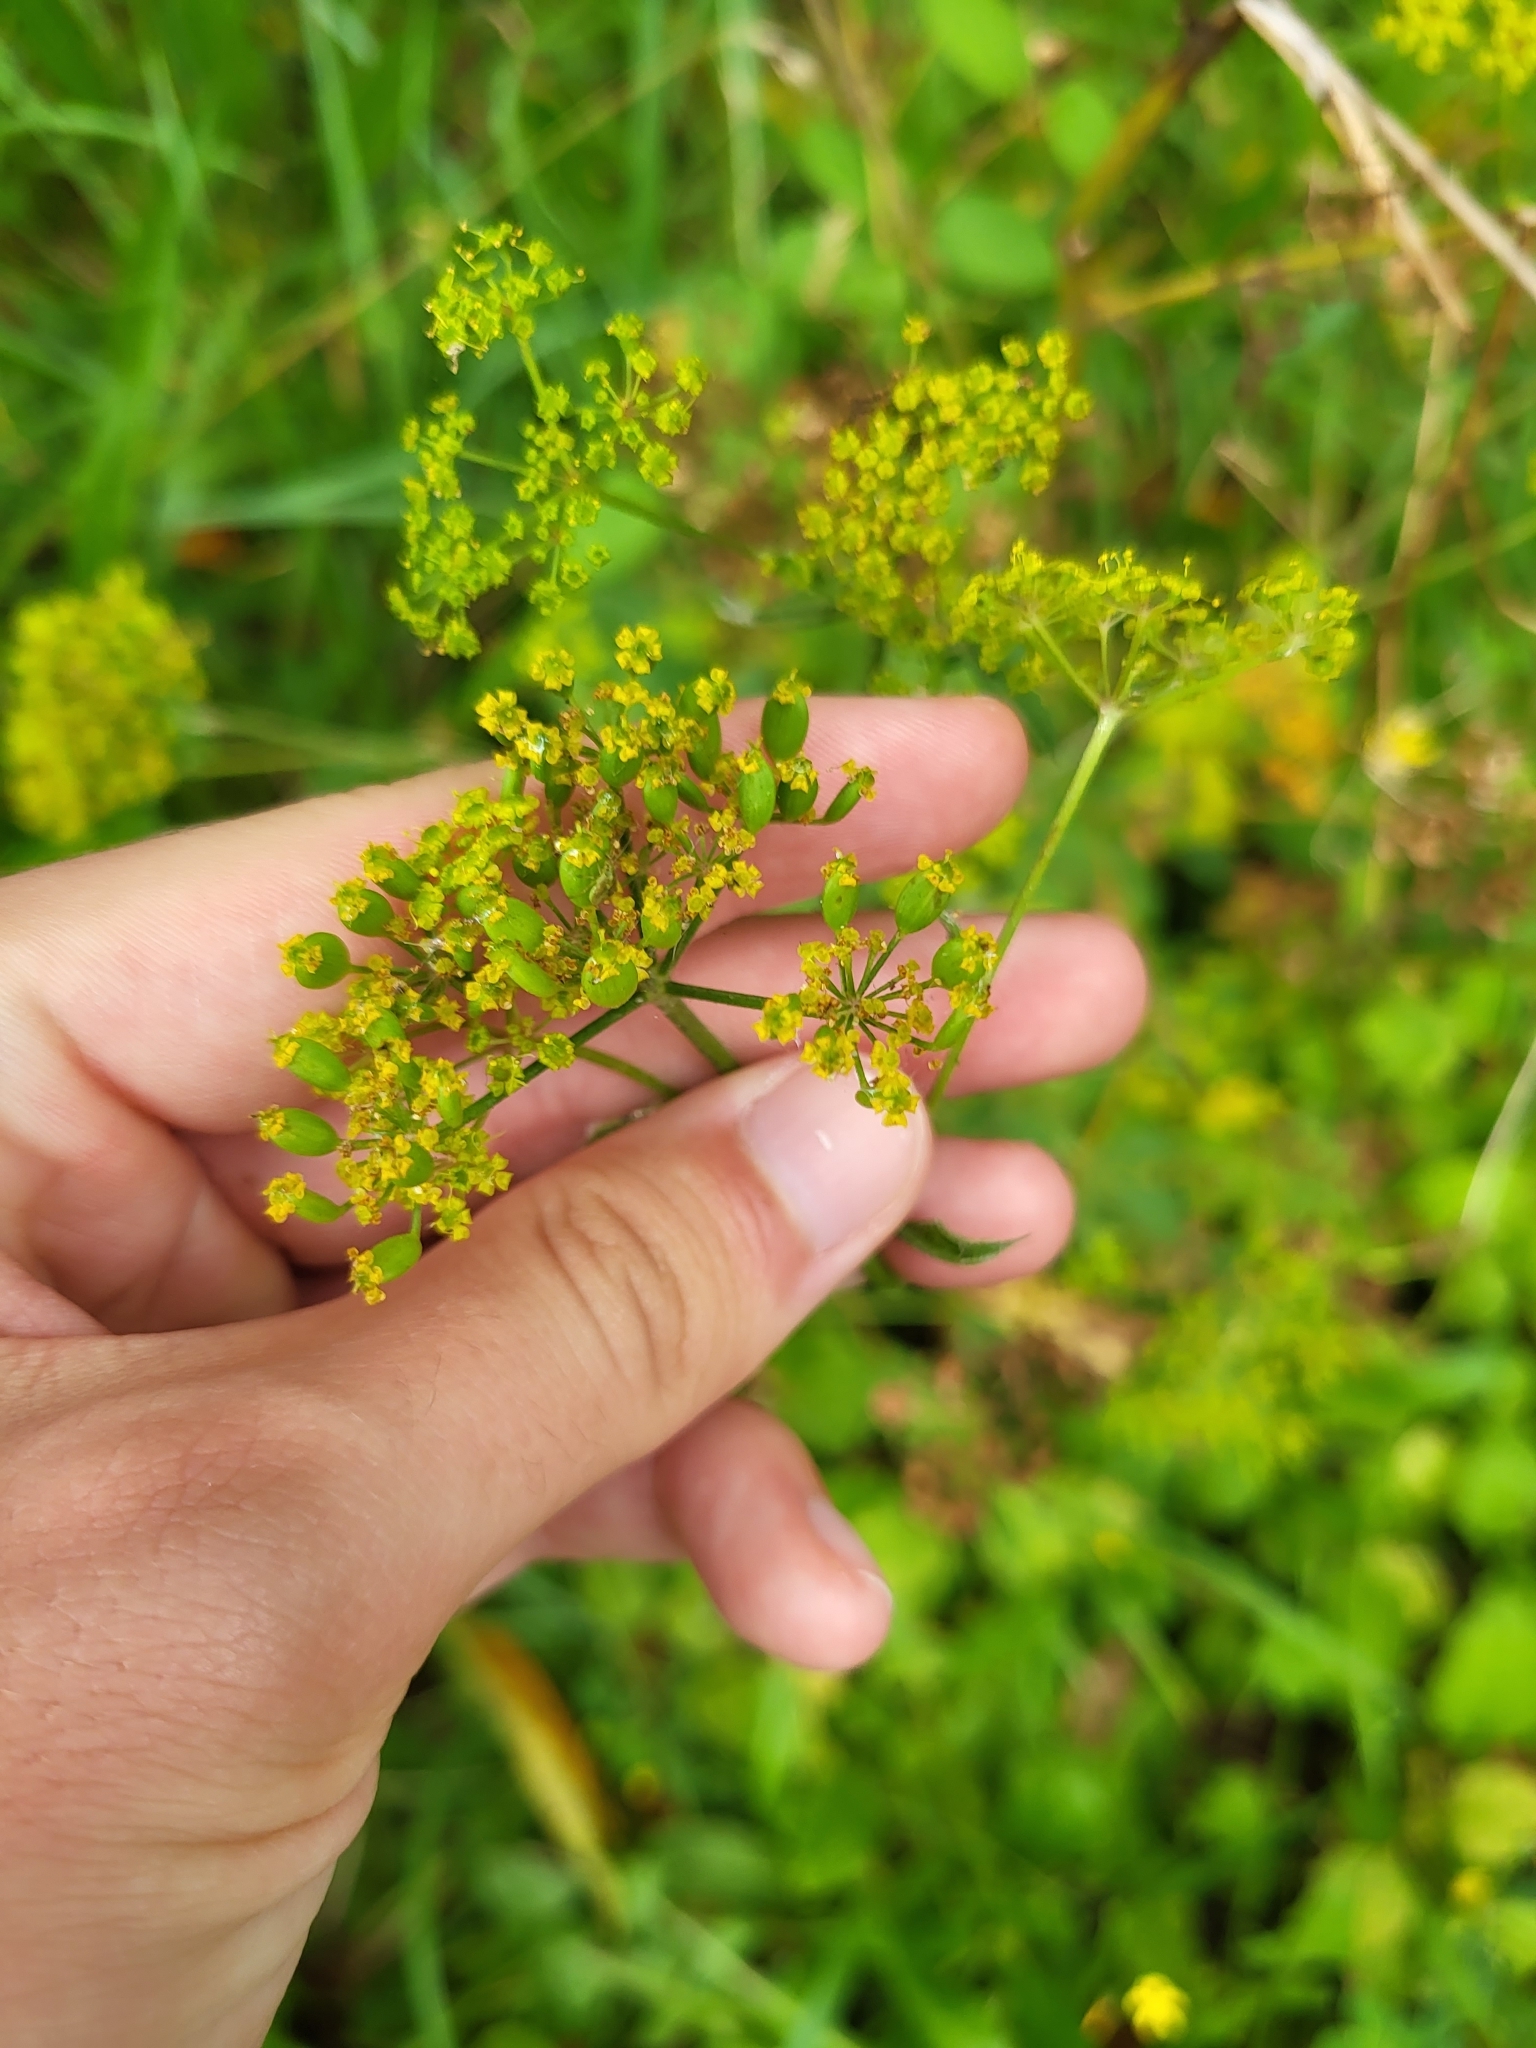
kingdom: Plantae
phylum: Tracheophyta
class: Magnoliopsida
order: Apiales
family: Apiaceae
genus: Pastinaca
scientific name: Pastinaca sativa
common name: Wild parsnip
